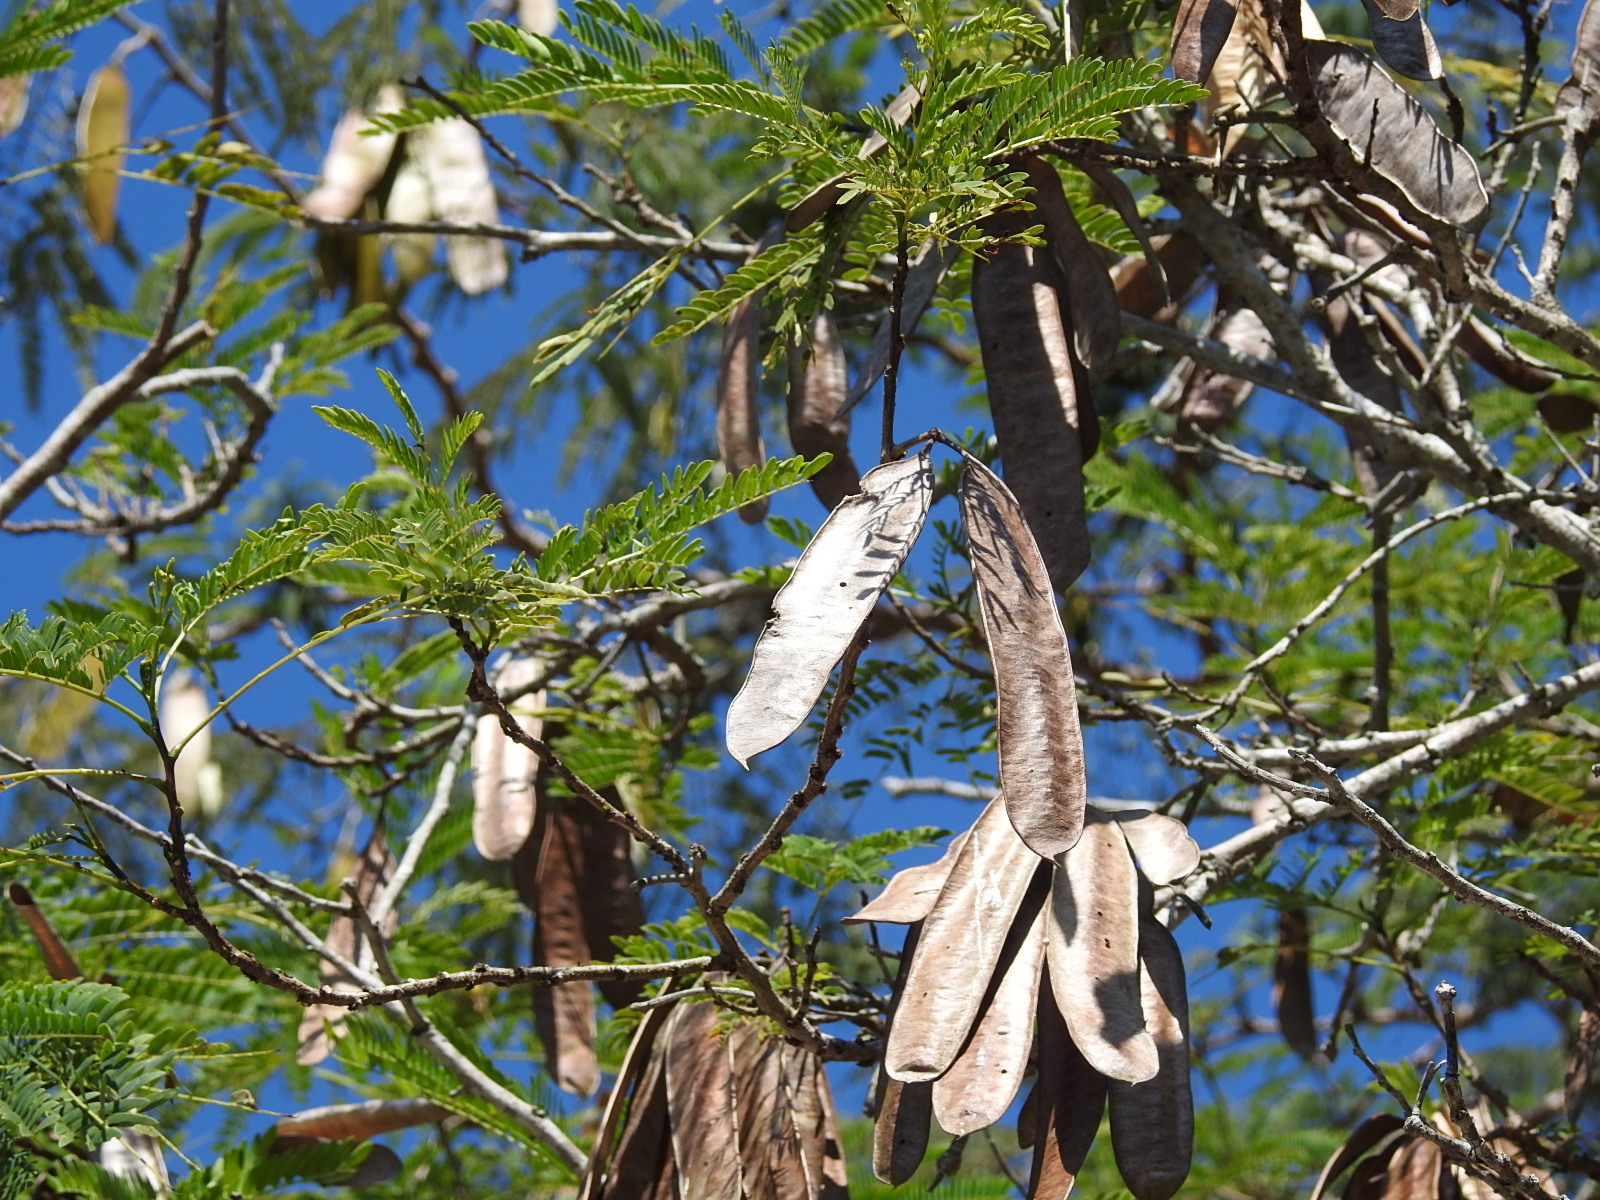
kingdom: Plantae
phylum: Tracheophyta
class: Magnoliopsida
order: Fabales
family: Fabaceae
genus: Leucaena
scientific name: Leucaena cuspidata
